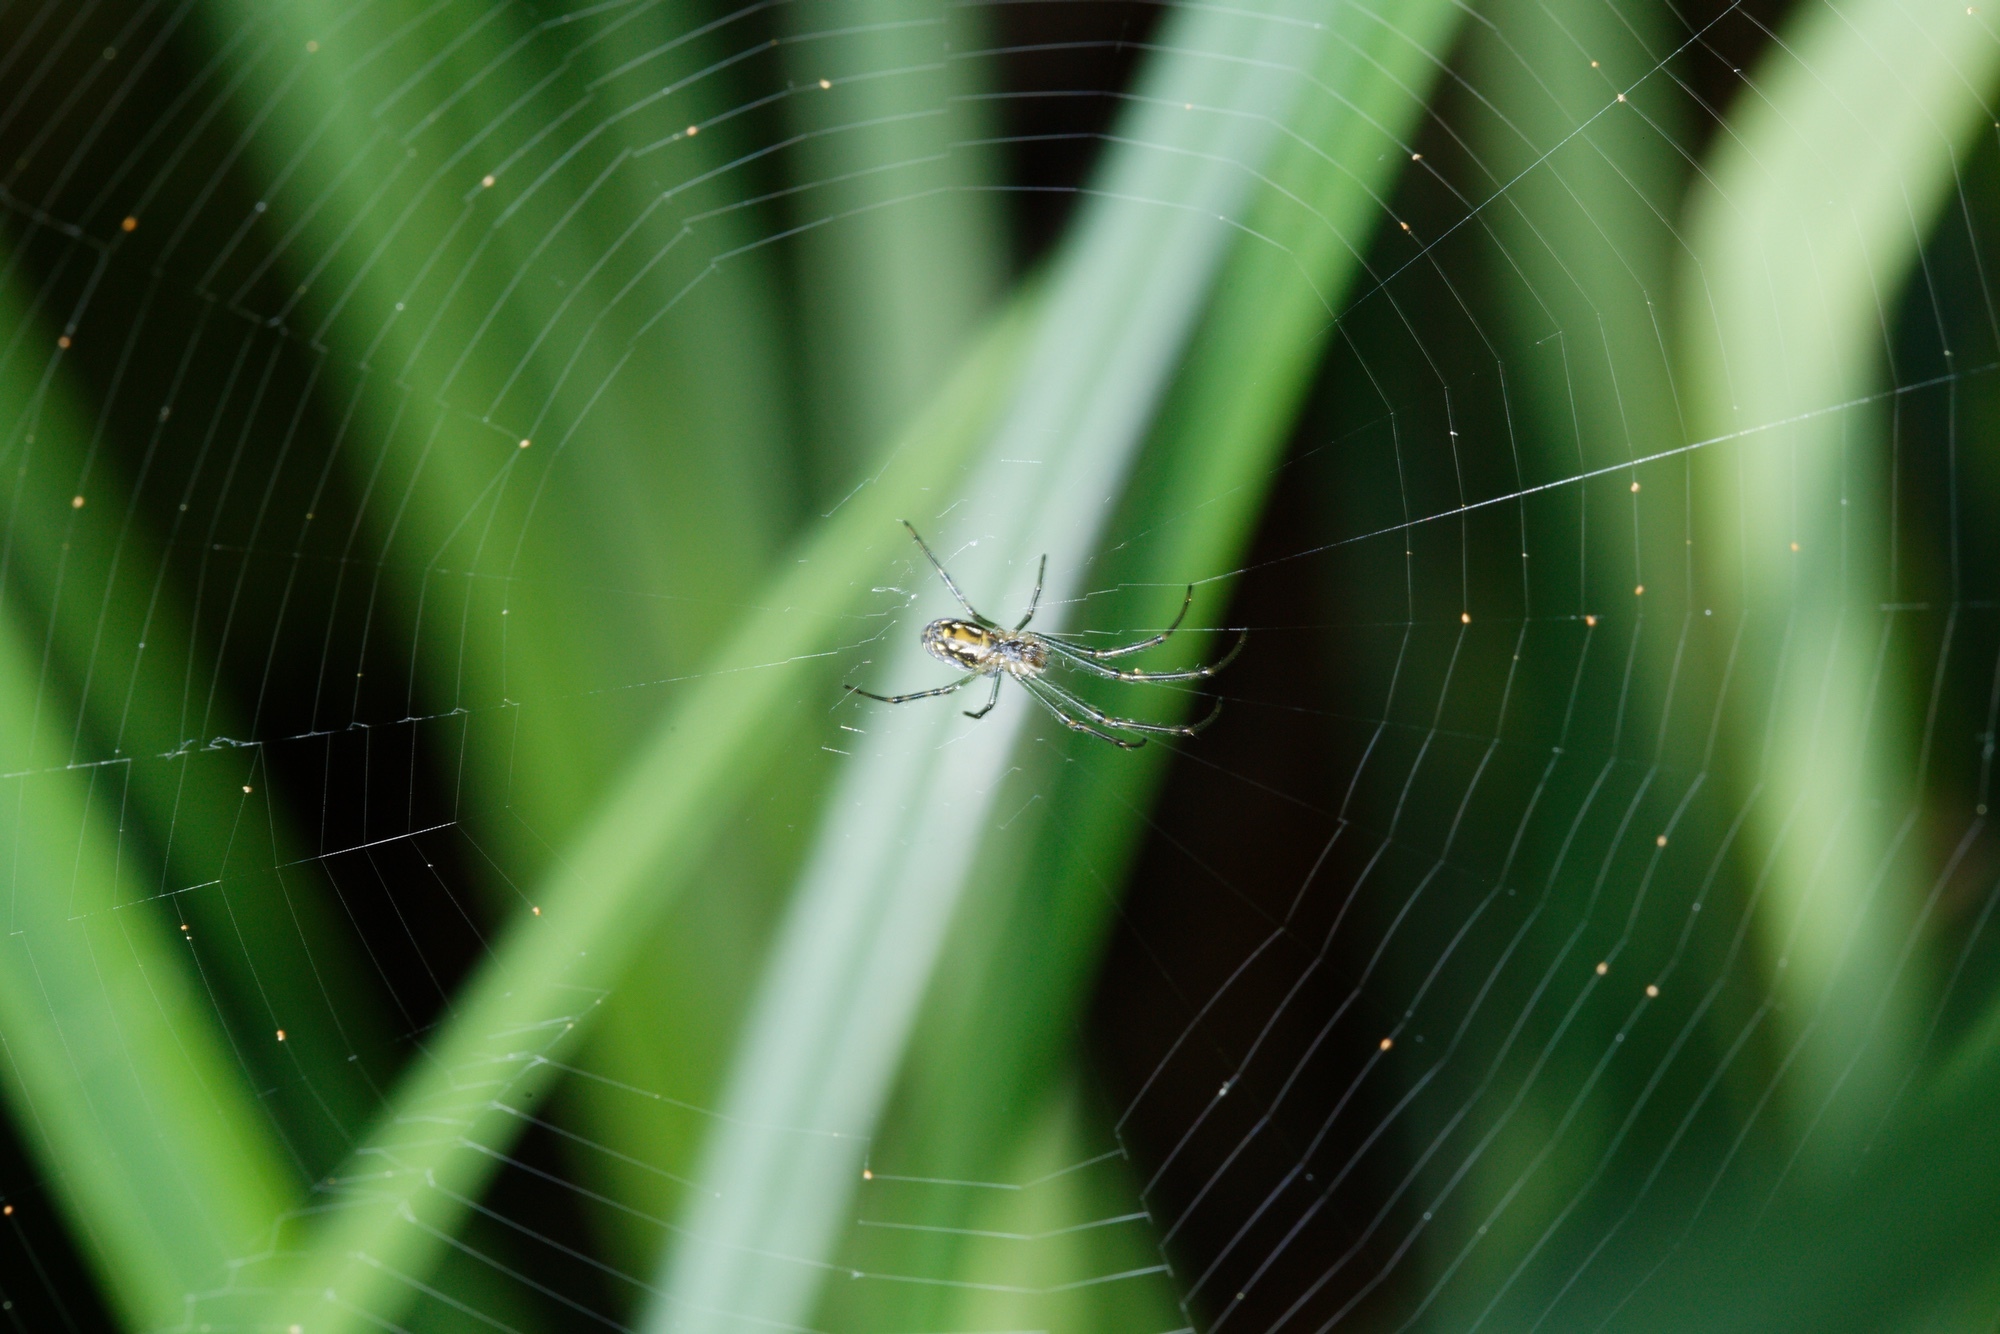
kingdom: Animalia
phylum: Arthropoda
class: Arachnida
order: Araneae
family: Tetragnathidae
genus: Leucauge
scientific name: Leucauge dromedaria
